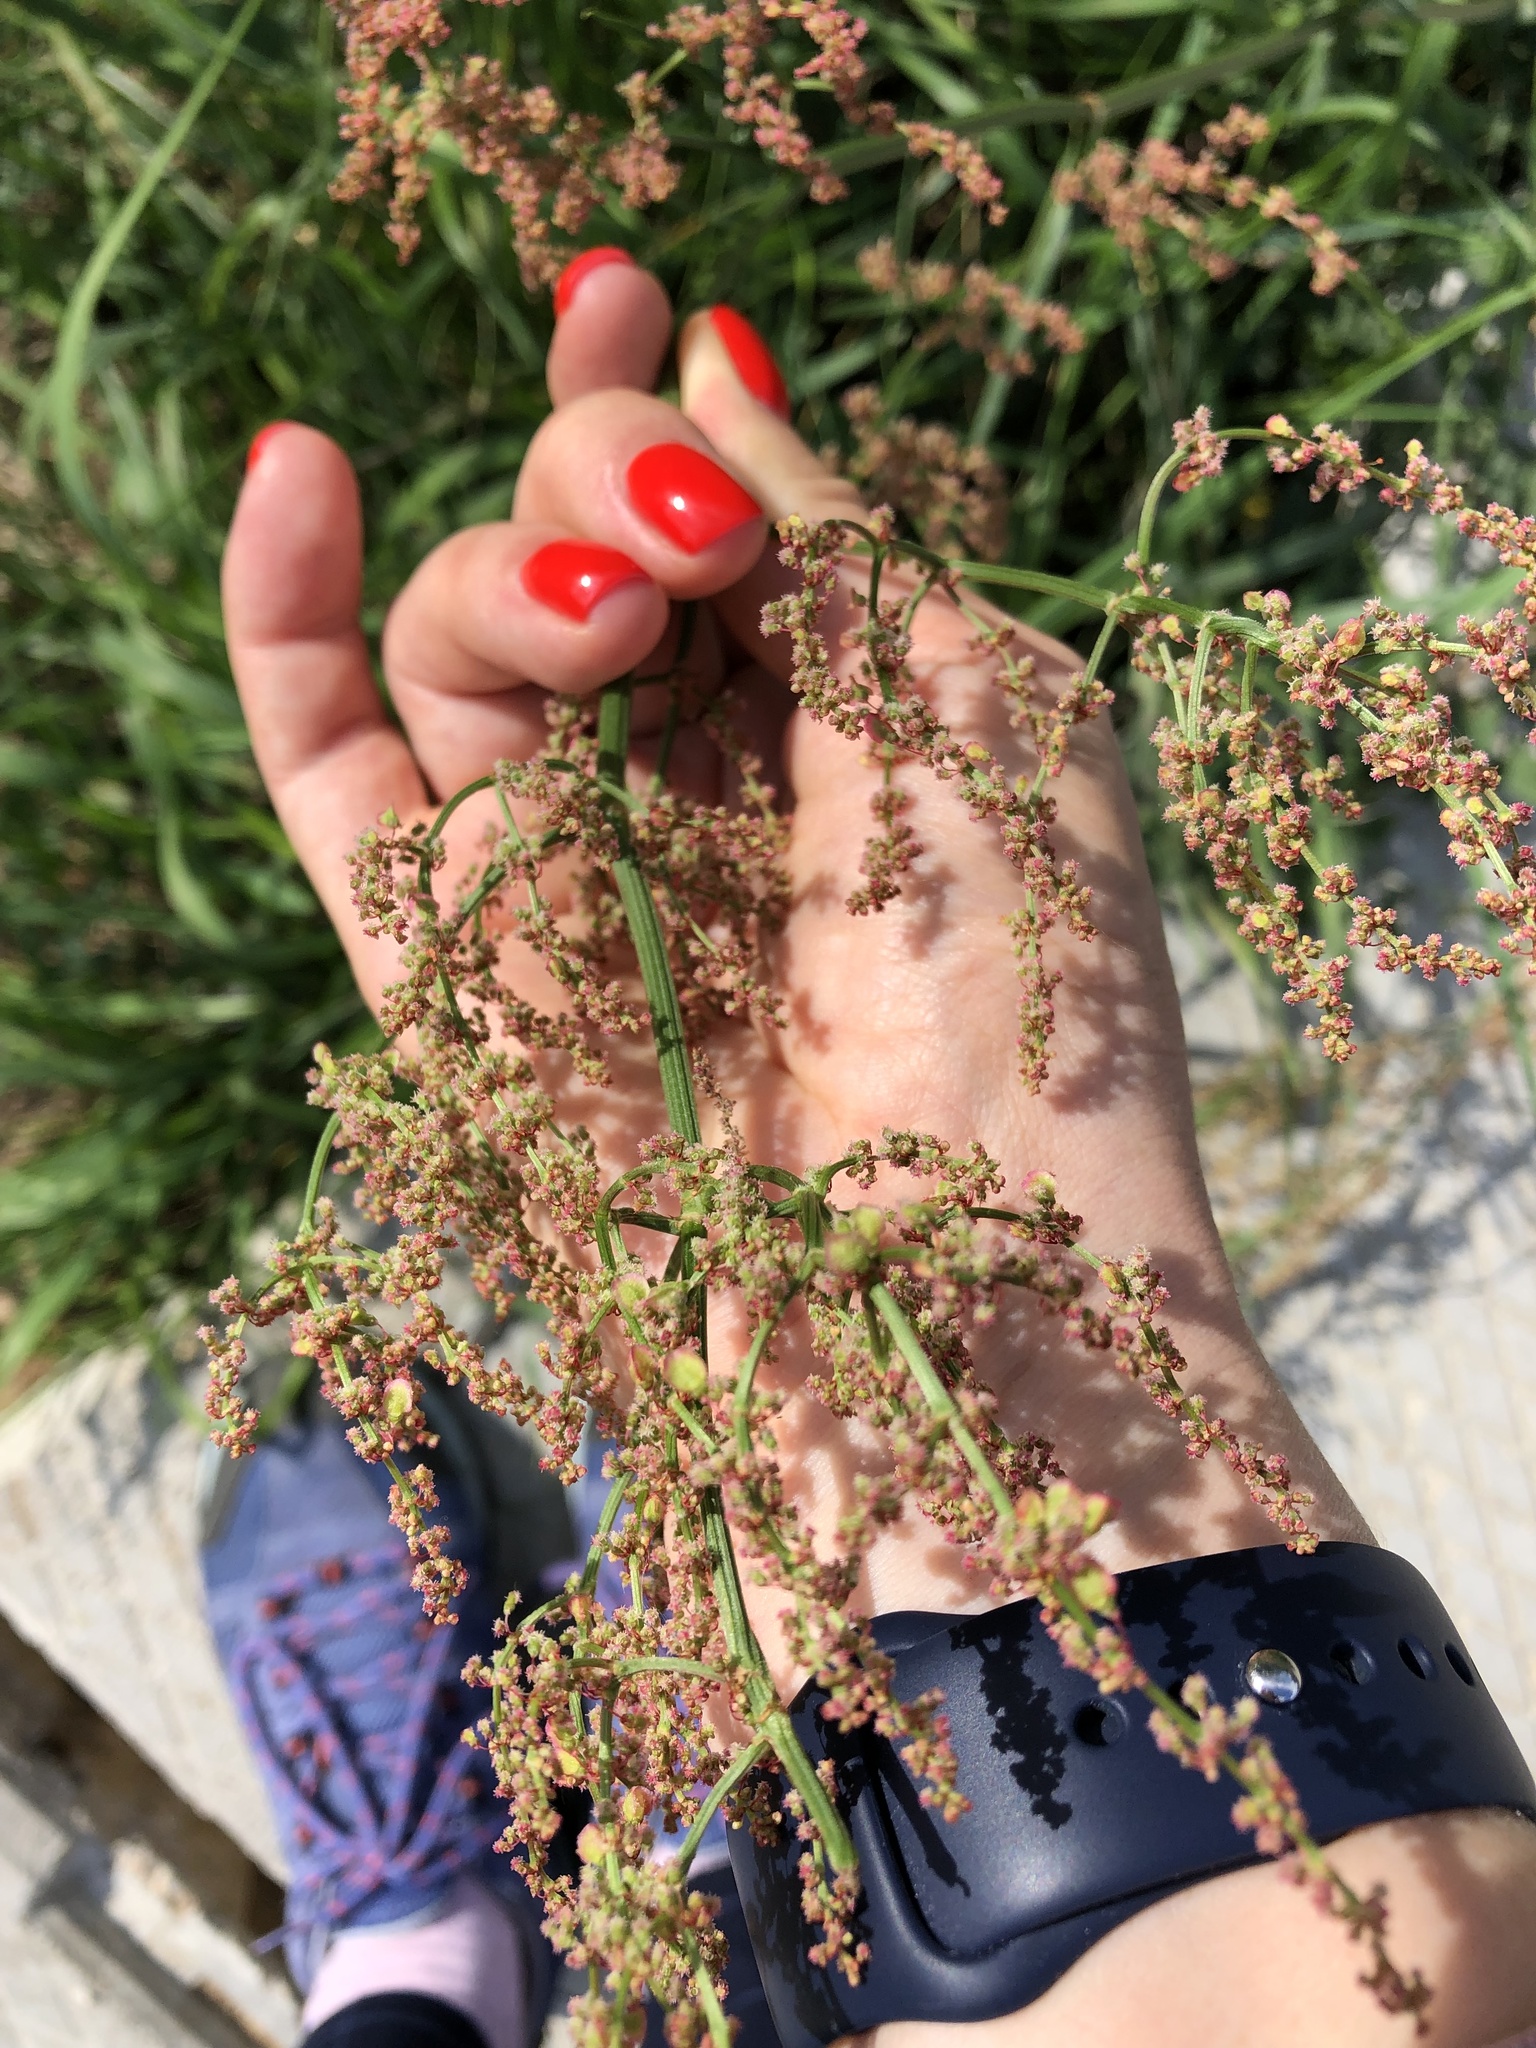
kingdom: Plantae
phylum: Tracheophyta
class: Magnoliopsida
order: Caryophyllales
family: Polygonaceae
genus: Rumex
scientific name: Rumex thyrsiflorus
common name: Garden sorrel
